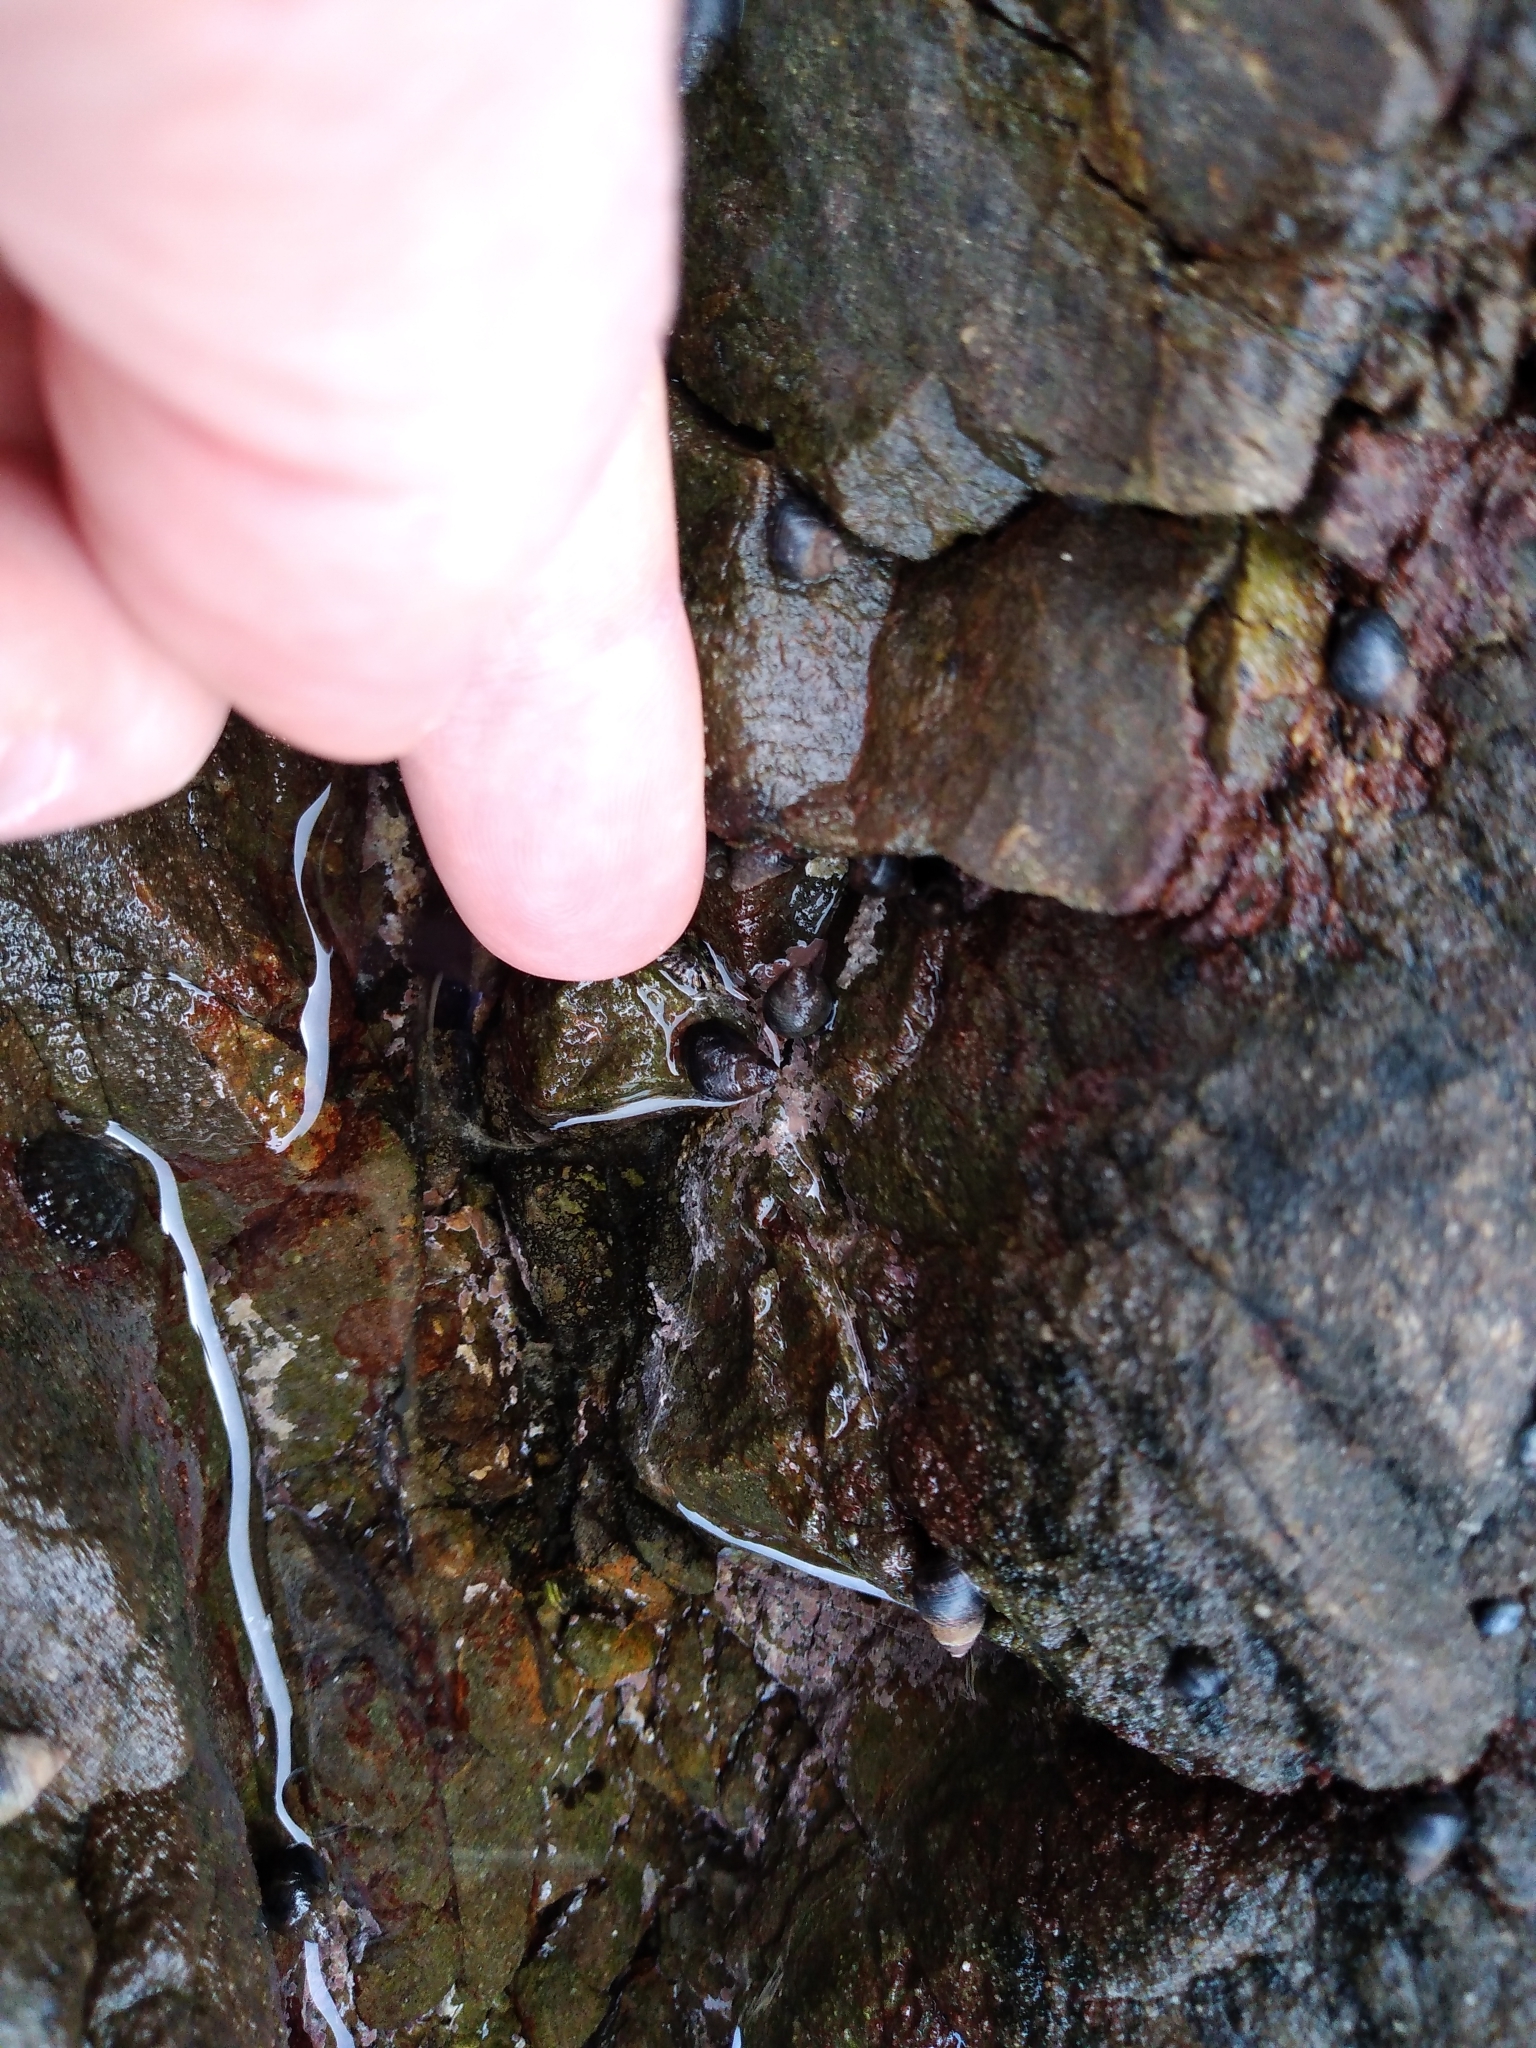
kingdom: Animalia
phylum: Mollusca
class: Gastropoda
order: Littorinimorpha
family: Littorinidae
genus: Austrolittorina
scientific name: Austrolittorina cincta
